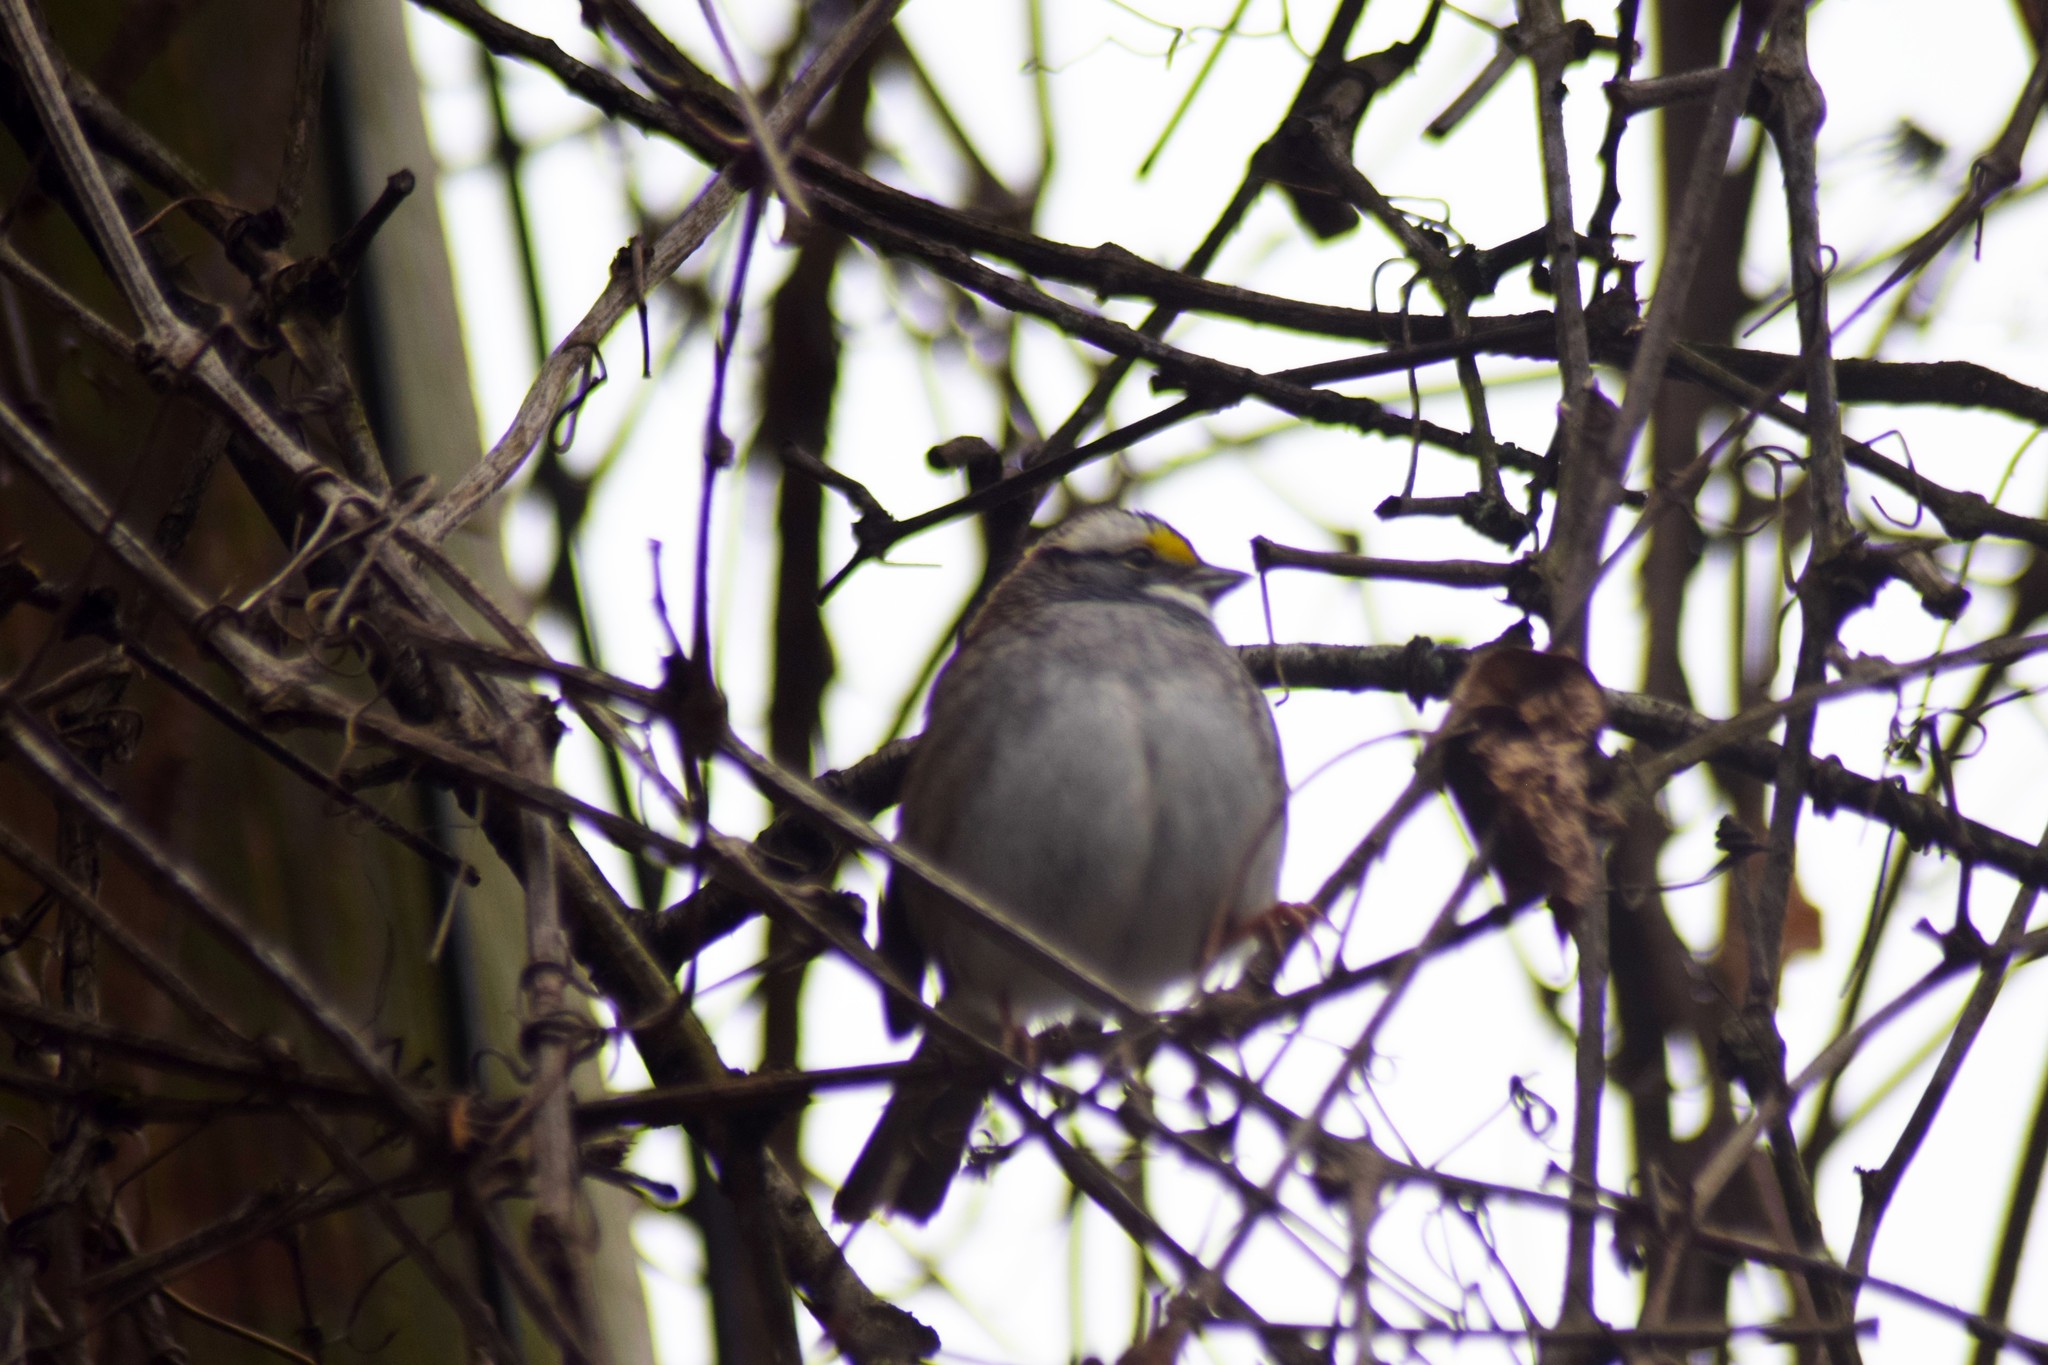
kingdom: Animalia
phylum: Chordata
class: Aves
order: Passeriformes
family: Passerellidae
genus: Zonotrichia
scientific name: Zonotrichia albicollis
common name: White-throated sparrow
